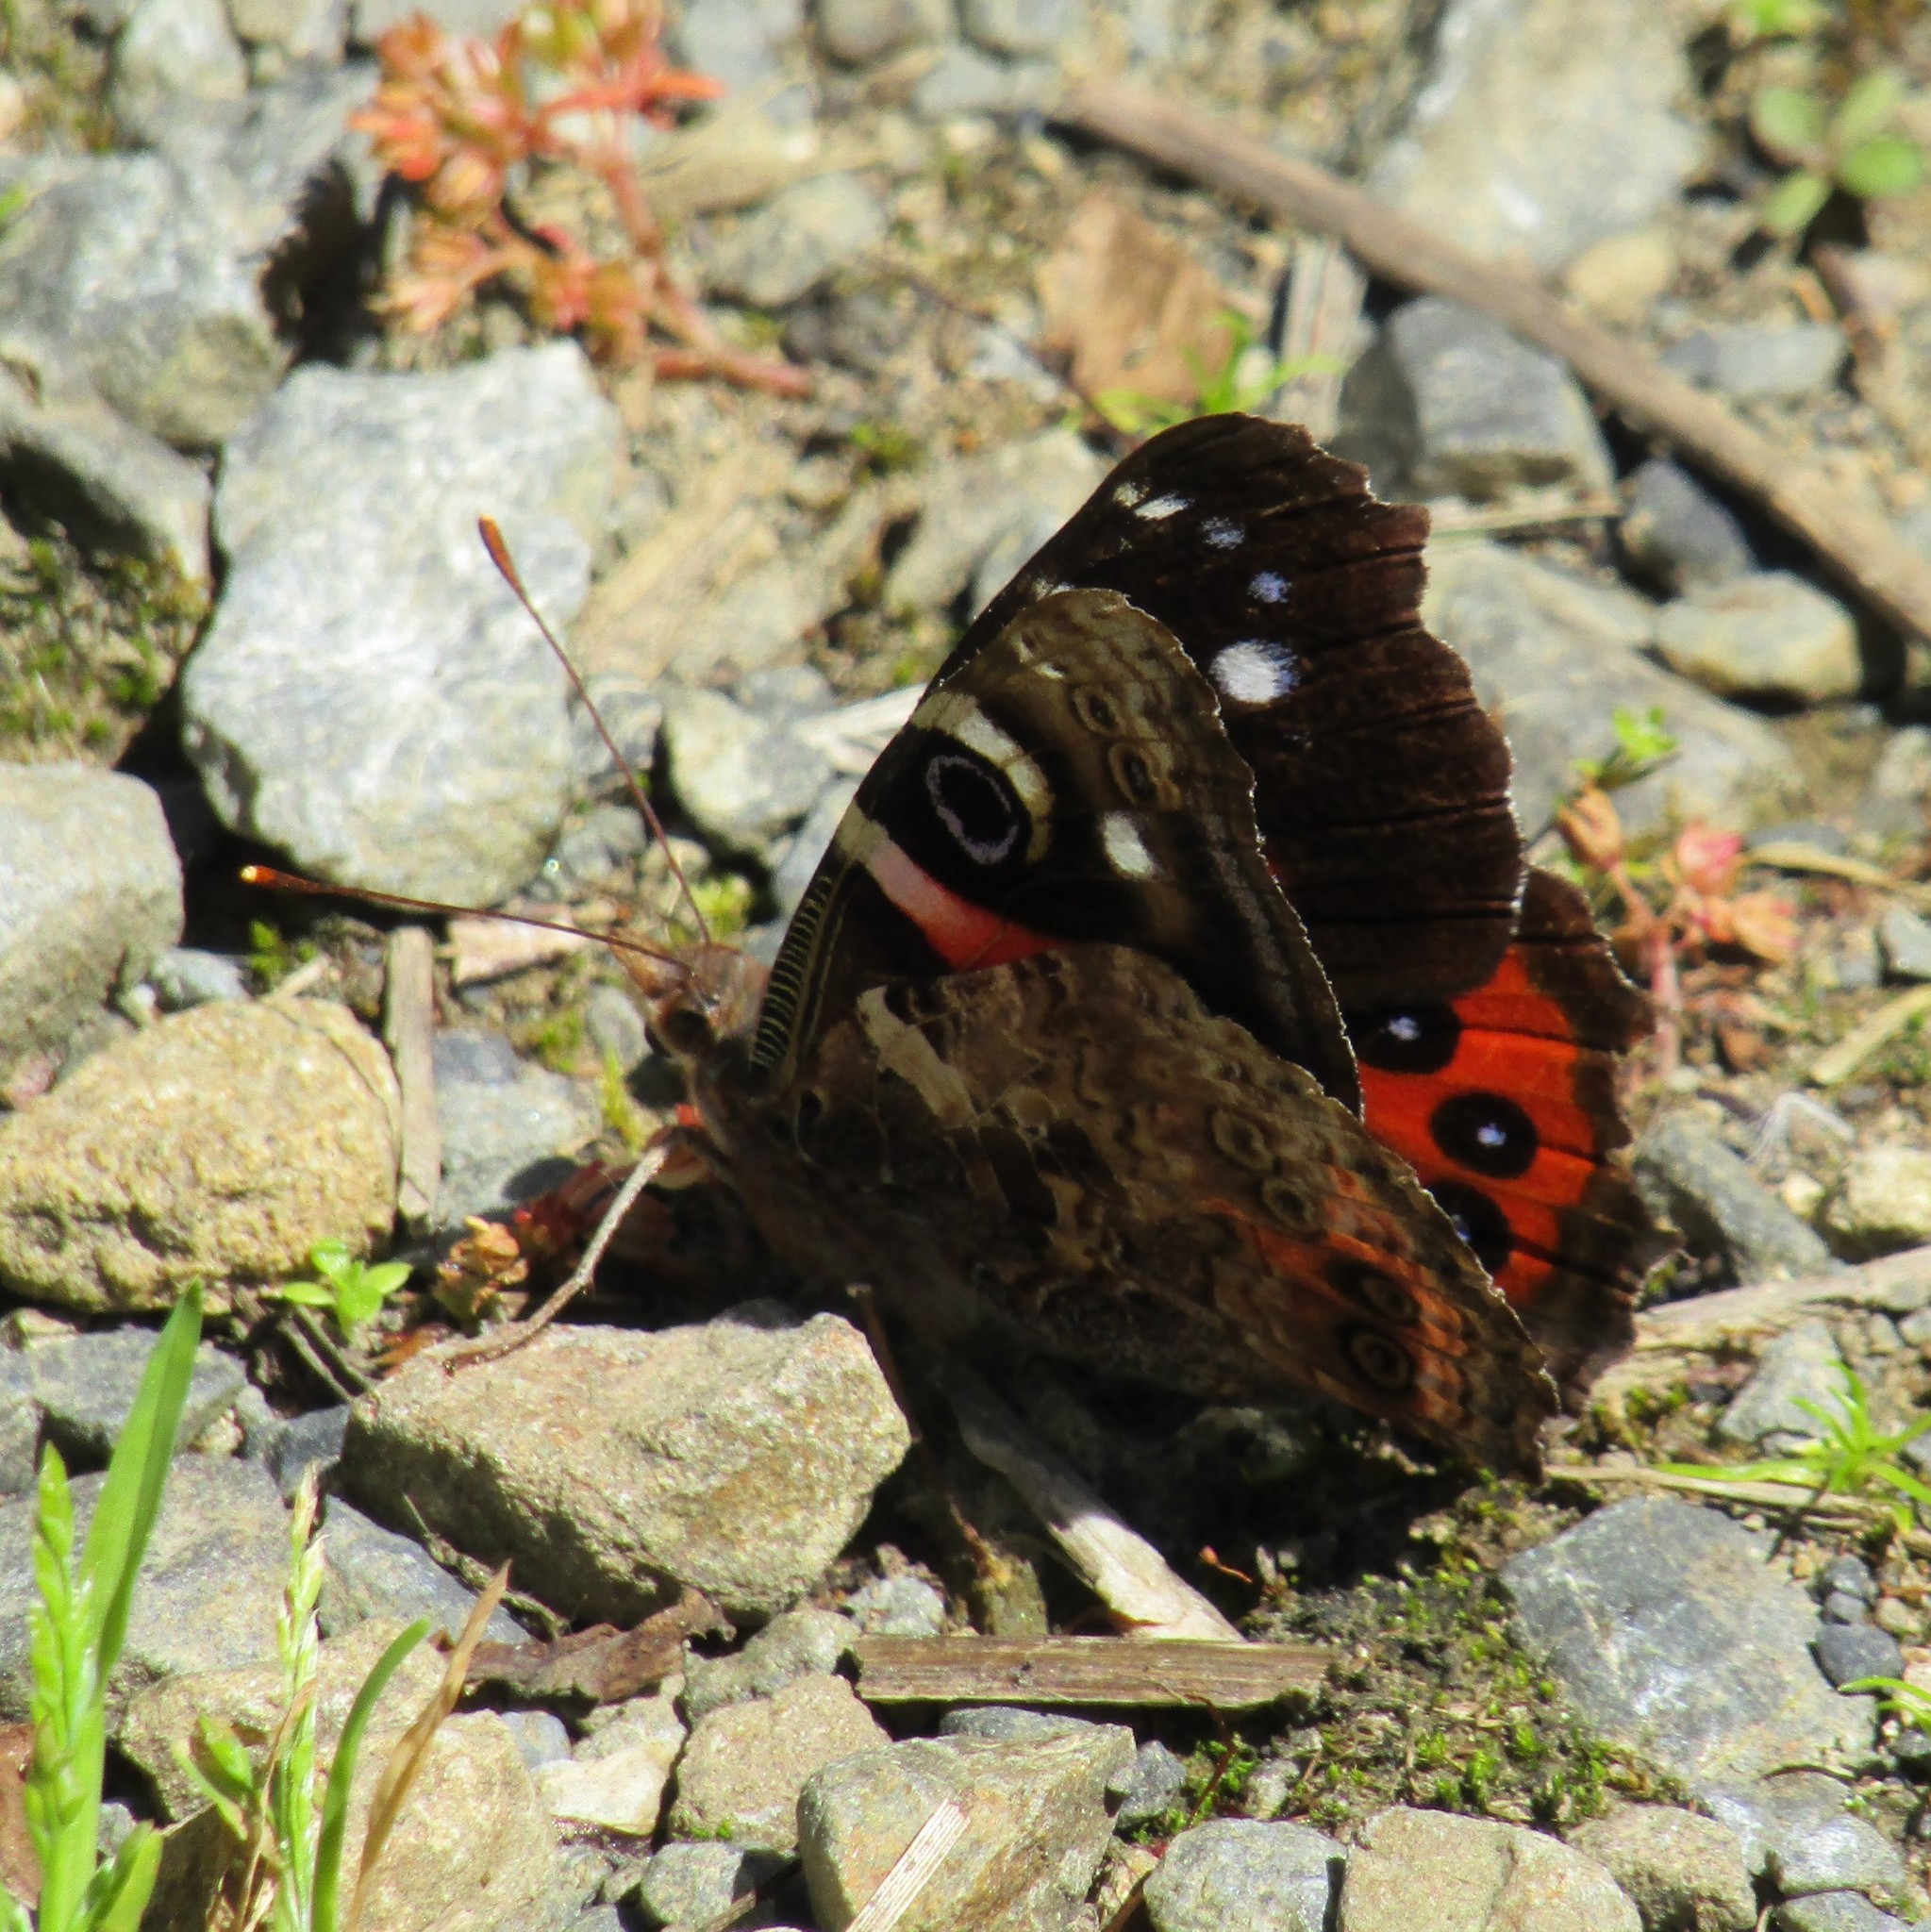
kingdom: Animalia
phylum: Arthropoda
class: Insecta
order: Lepidoptera
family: Nymphalidae
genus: Vanessa
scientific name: Vanessa gonerilla
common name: New zealand red admiral
